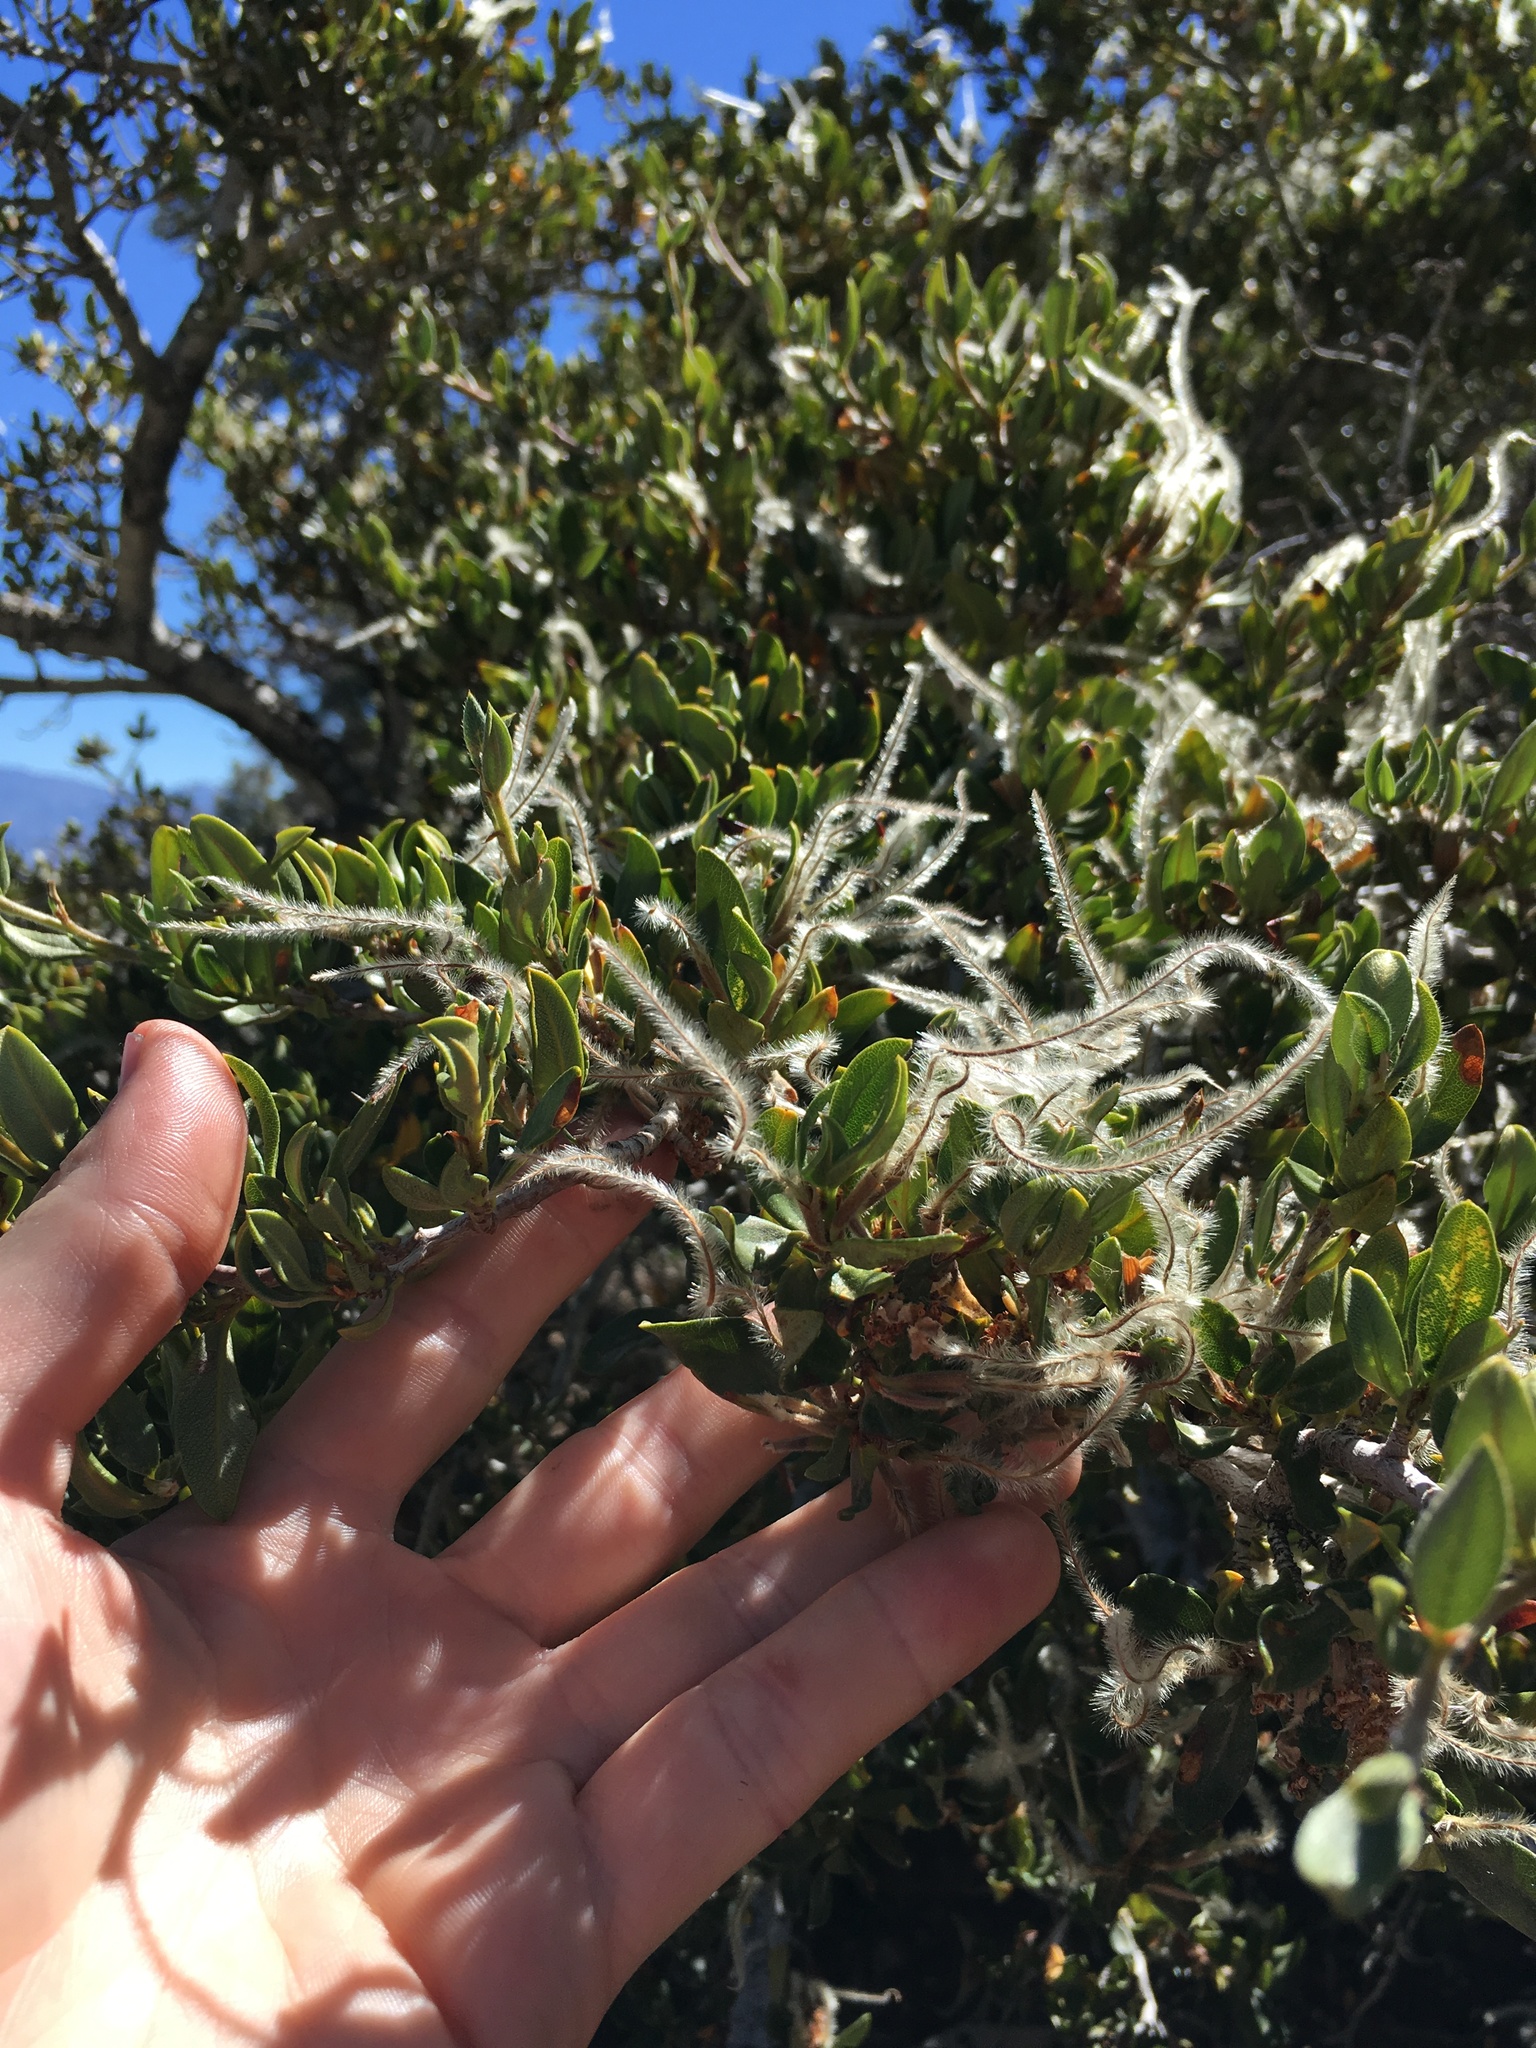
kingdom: Plantae
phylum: Tracheophyta
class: Magnoliopsida
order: Rosales
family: Rosaceae
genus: Cercocarpus
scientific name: Cercocarpus ledifolius
